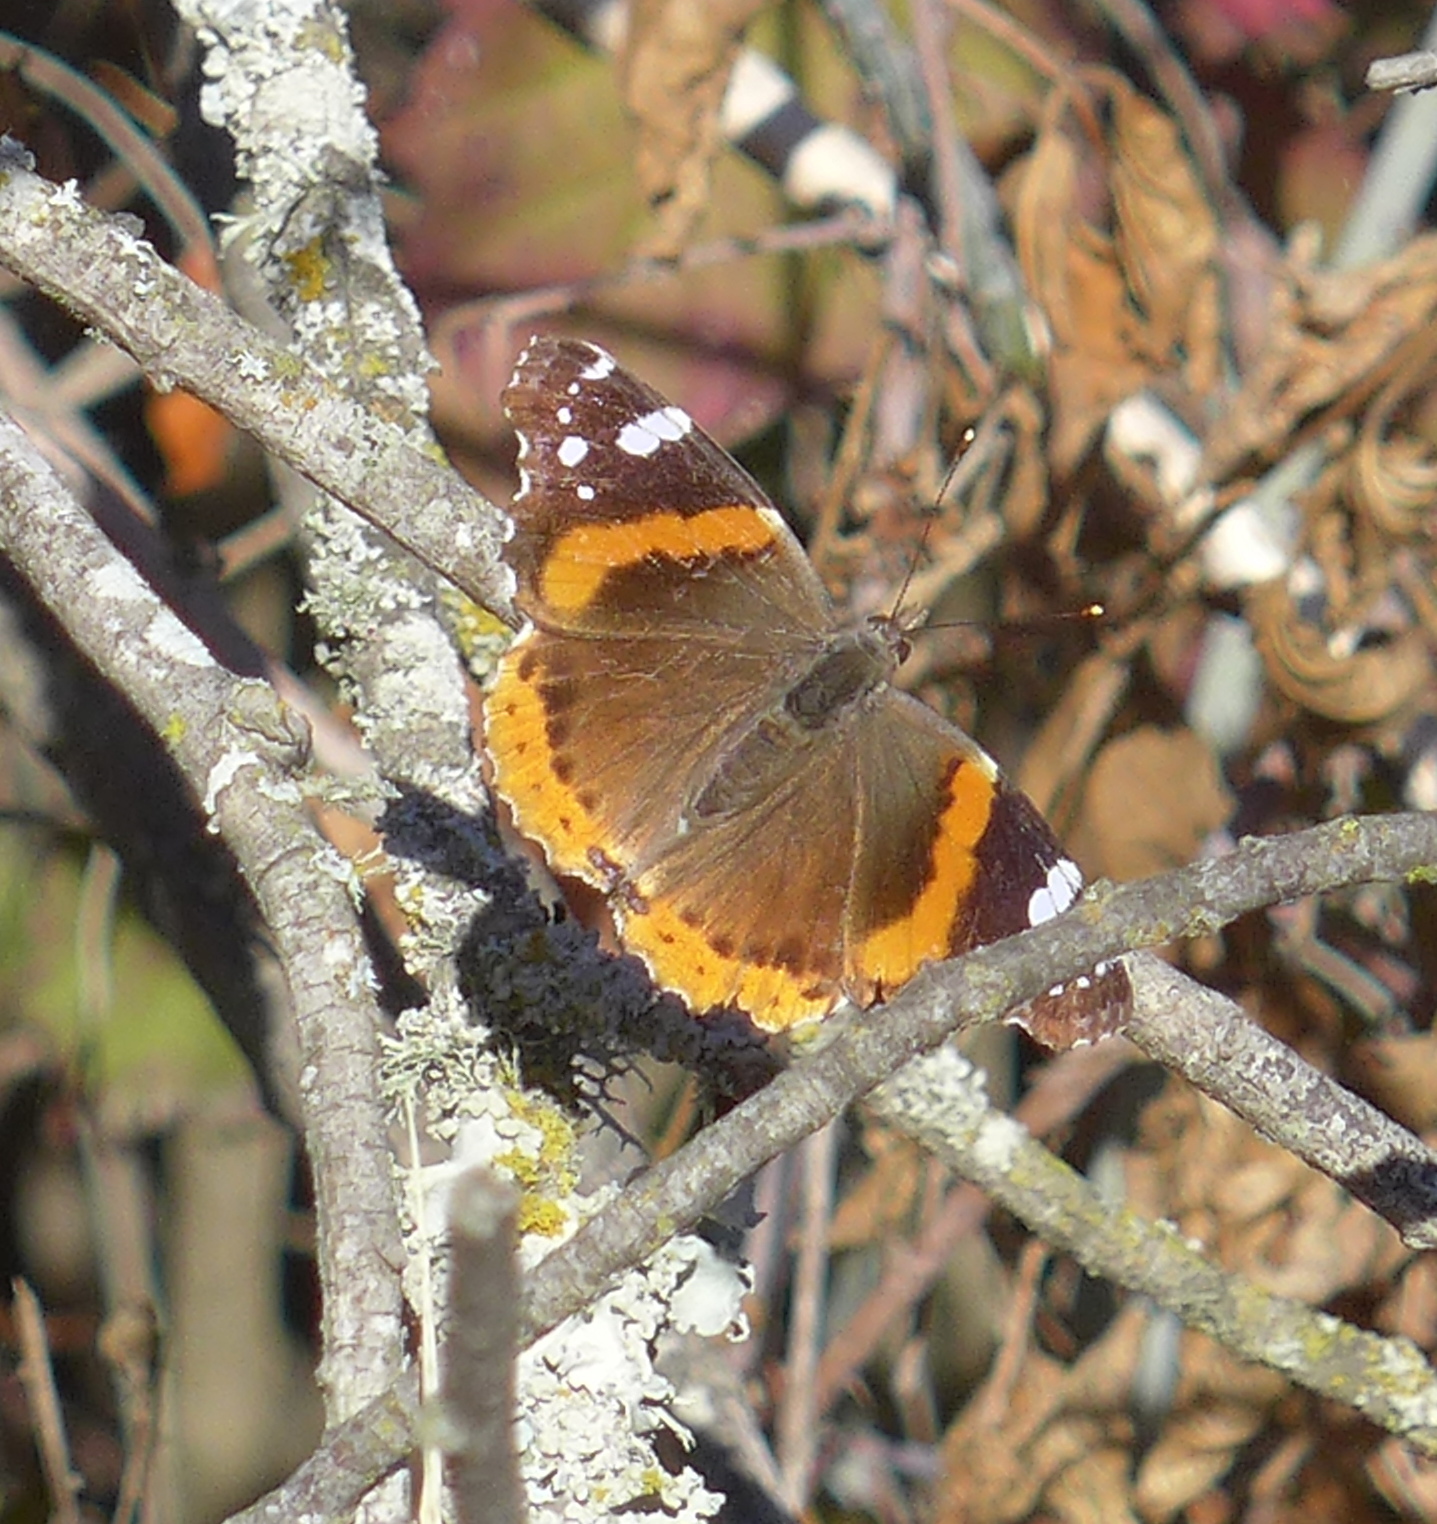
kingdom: Animalia
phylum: Arthropoda
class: Insecta
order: Lepidoptera
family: Nymphalidae
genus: Vanessa
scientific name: Vanessa atalanta
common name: Red admiral
